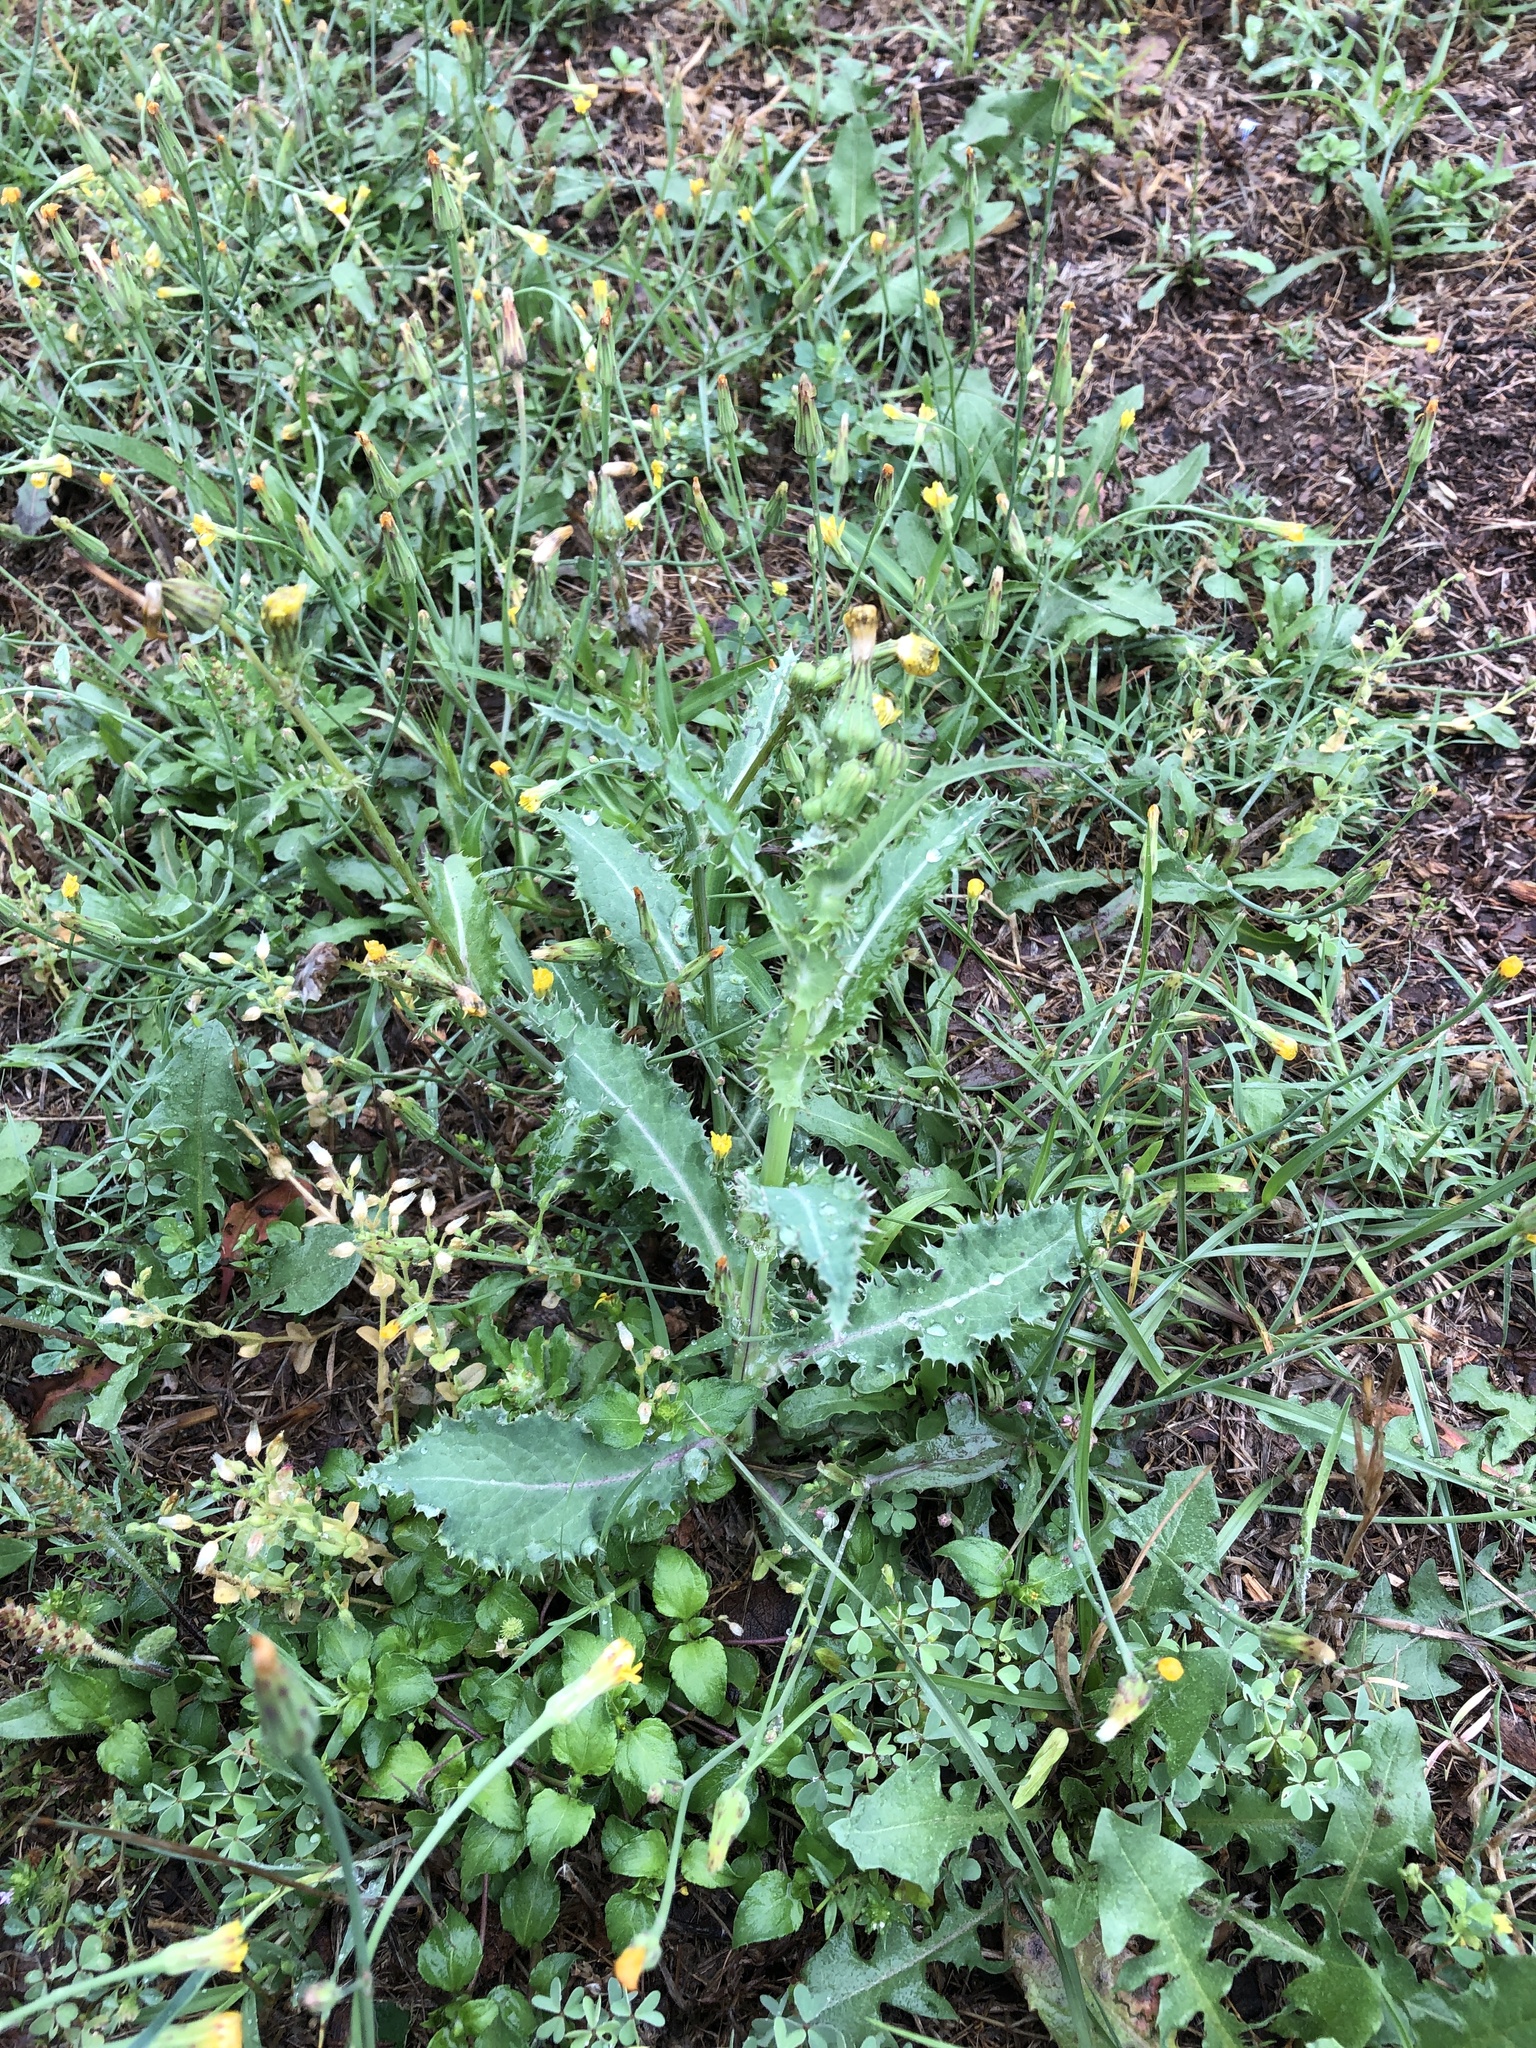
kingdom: Plantae
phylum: Tracheophyta
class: Magnoliopsida
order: Asterales
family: Asteraceae
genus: Sonchus
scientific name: Sonchus asper
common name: Prickly sow-thistle
